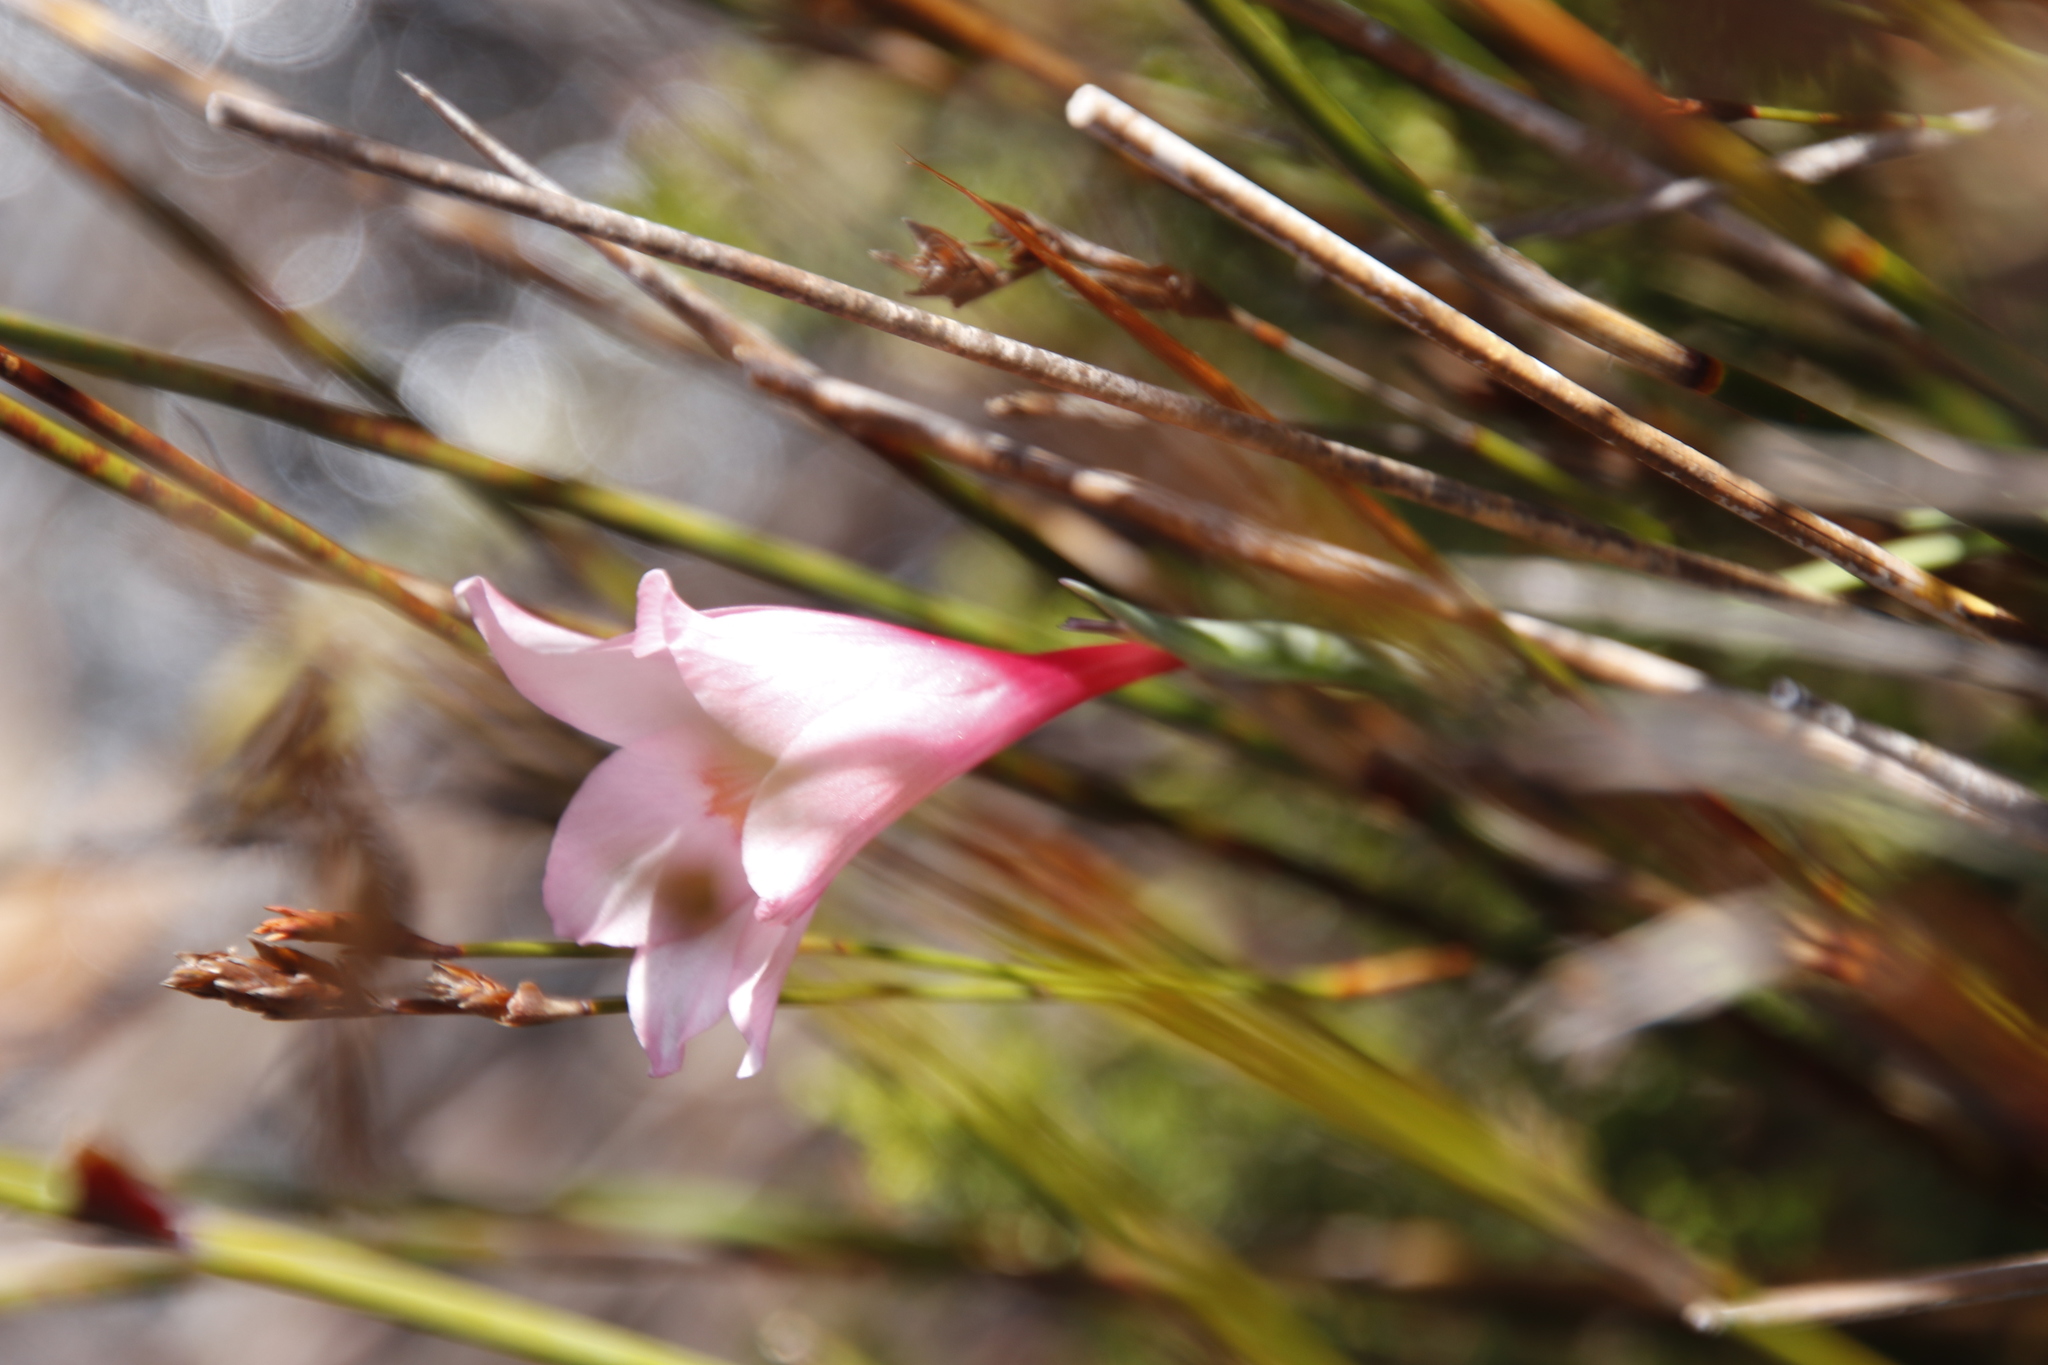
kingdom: Plantae
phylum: Tracheophyta
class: Liliopsida
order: Asparagales
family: Iridaceae
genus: Gladiolus
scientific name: Gladiolus pappei
